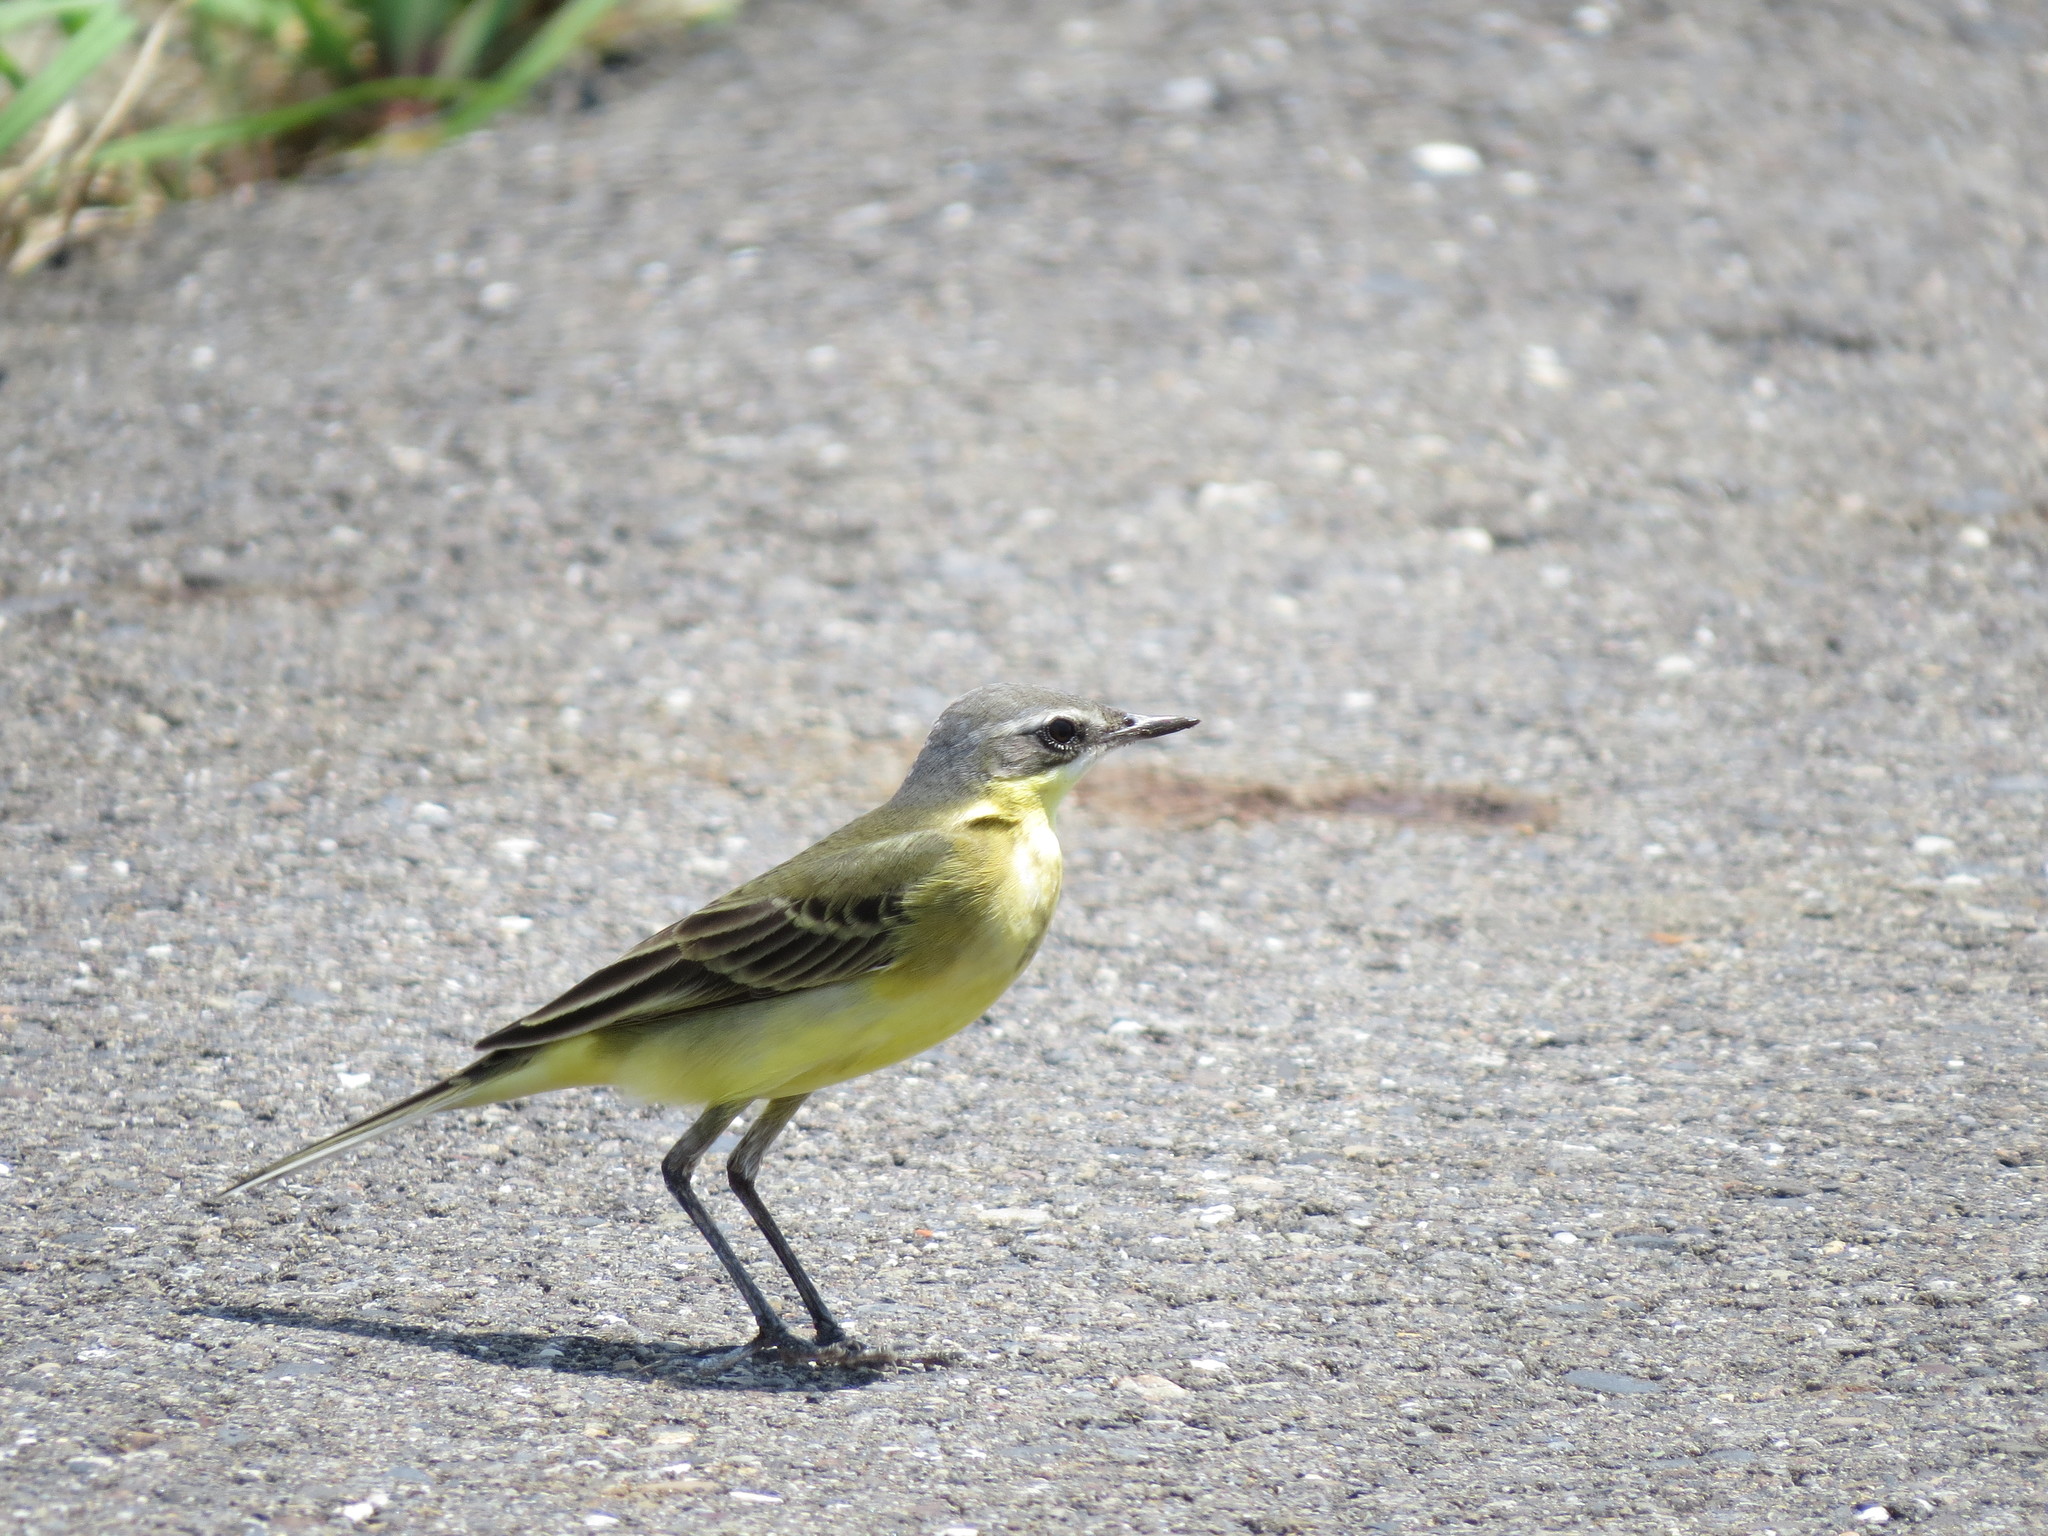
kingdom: Animalia
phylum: Chordata
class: Aves
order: Passeriformes
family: Motacillidae
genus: Motacilla
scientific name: Motacilla tschutschensis
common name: Eastern yellow wagtail
